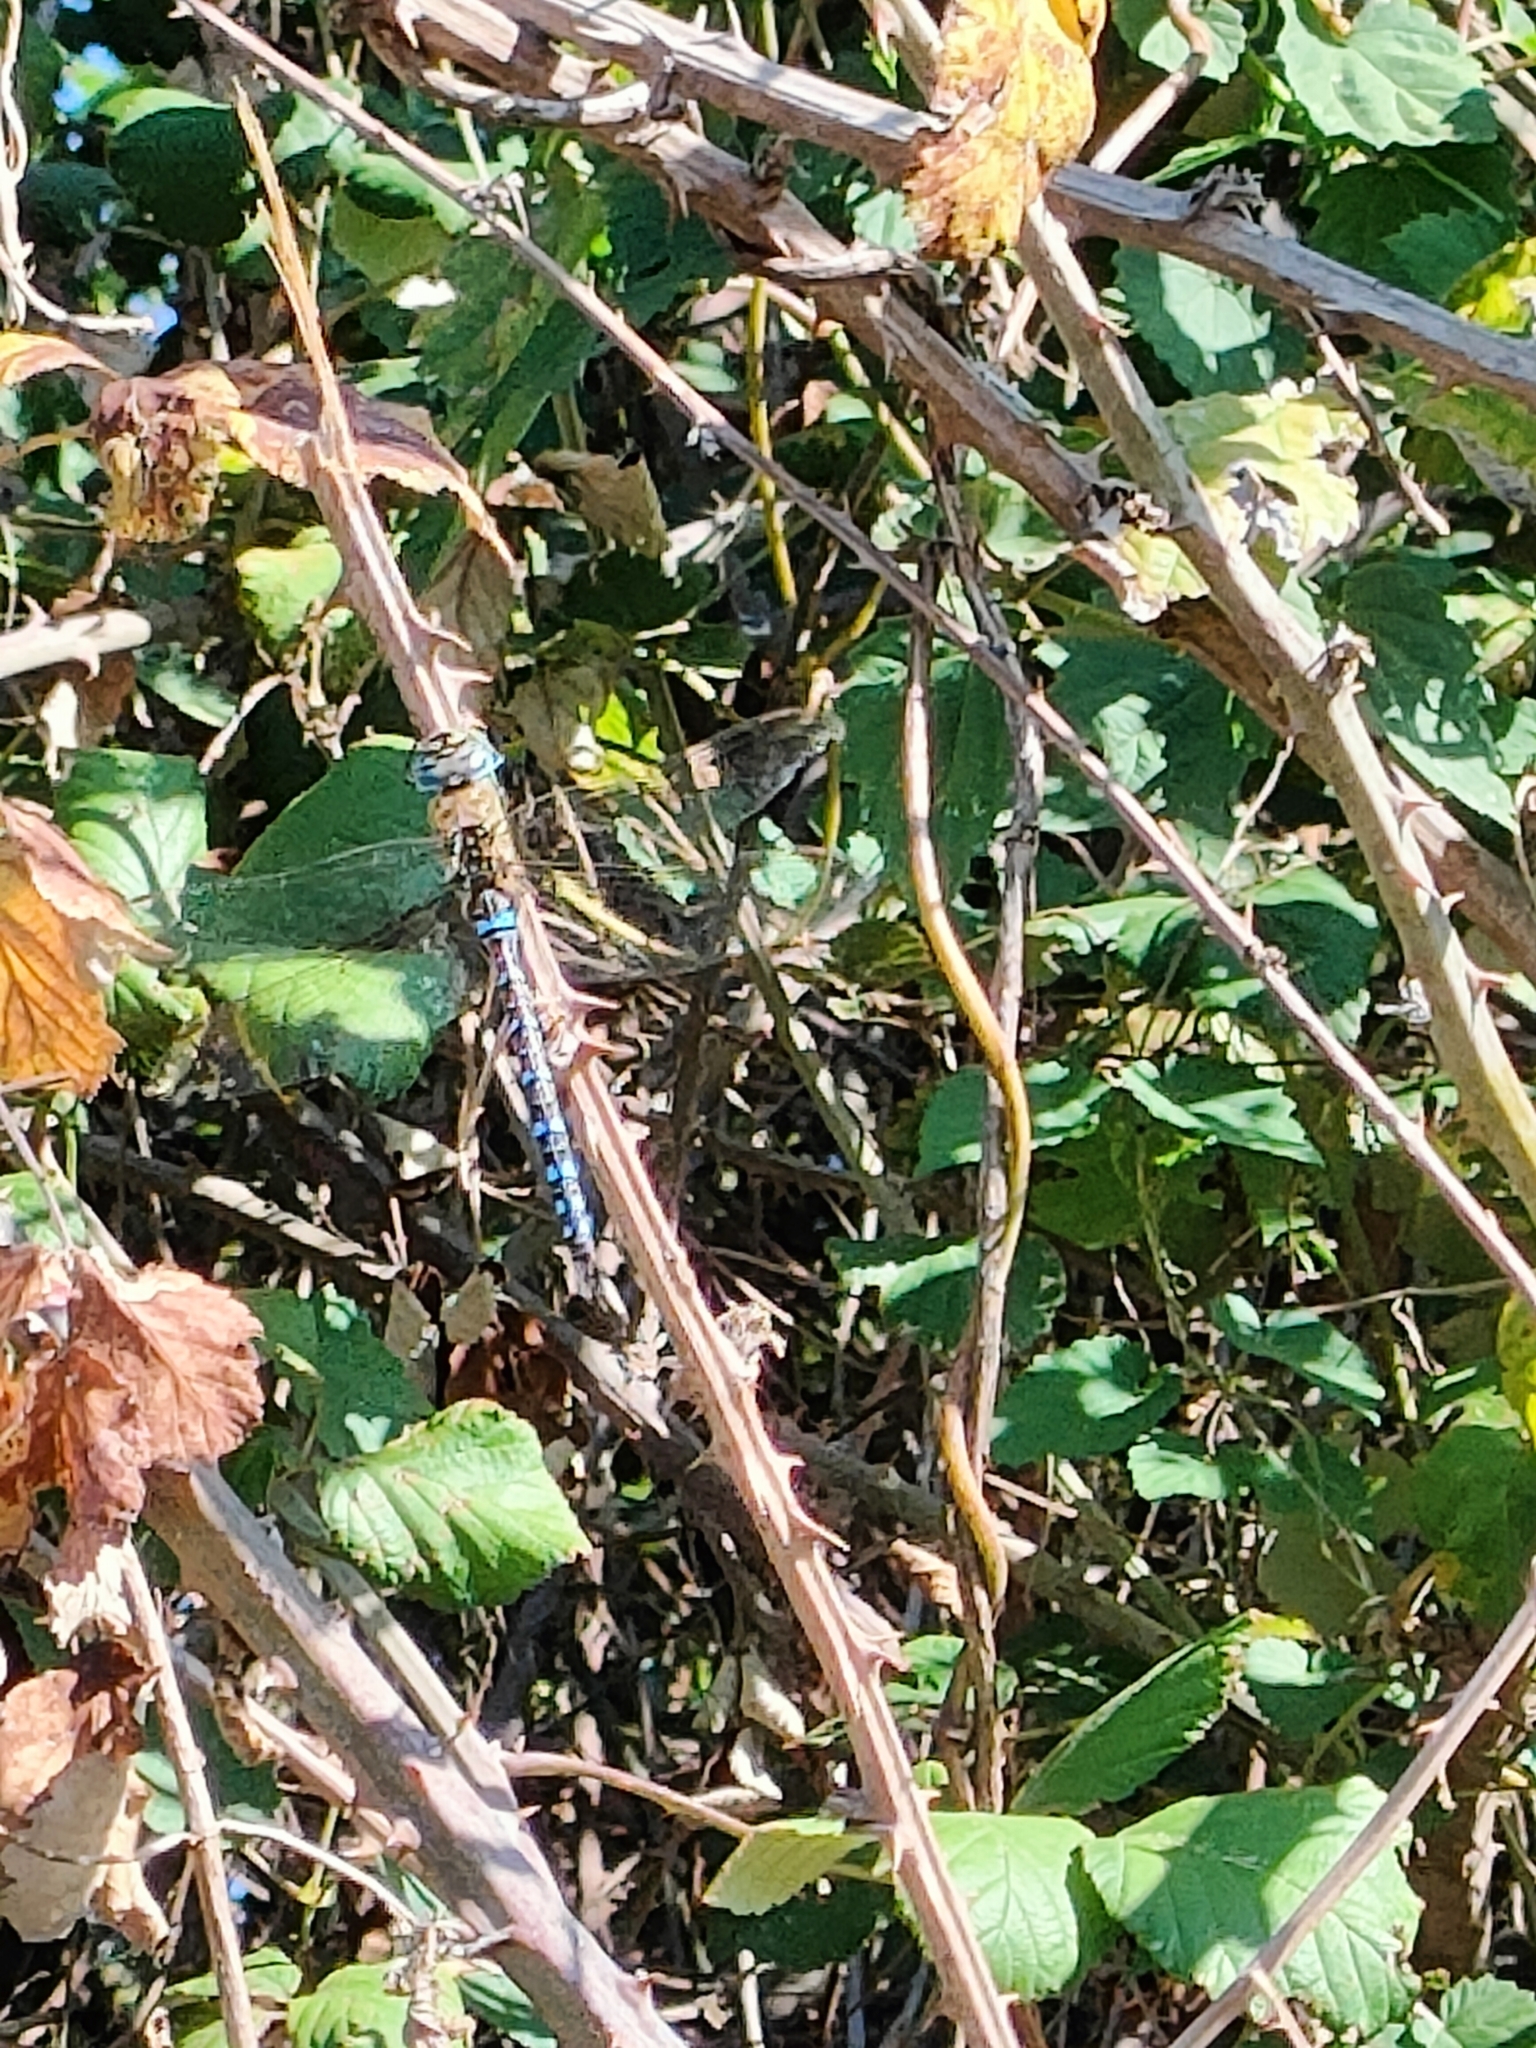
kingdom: Animalia
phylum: Arthropoda
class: Insecta
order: Odonata
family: Aeshnidae
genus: Aeshna
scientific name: Aeshna mixta
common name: Migrant hawker
